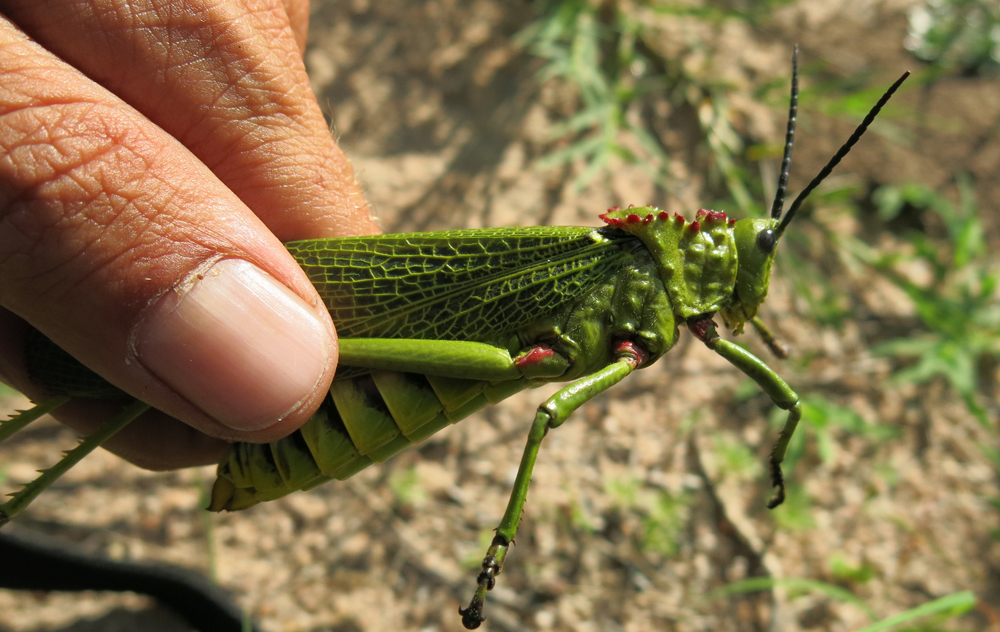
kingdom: Animalia
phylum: Arthropoda
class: Insecta
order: Orthoptera
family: Pyrgomorphidae
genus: Phymateus
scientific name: Phymateus viridipes
